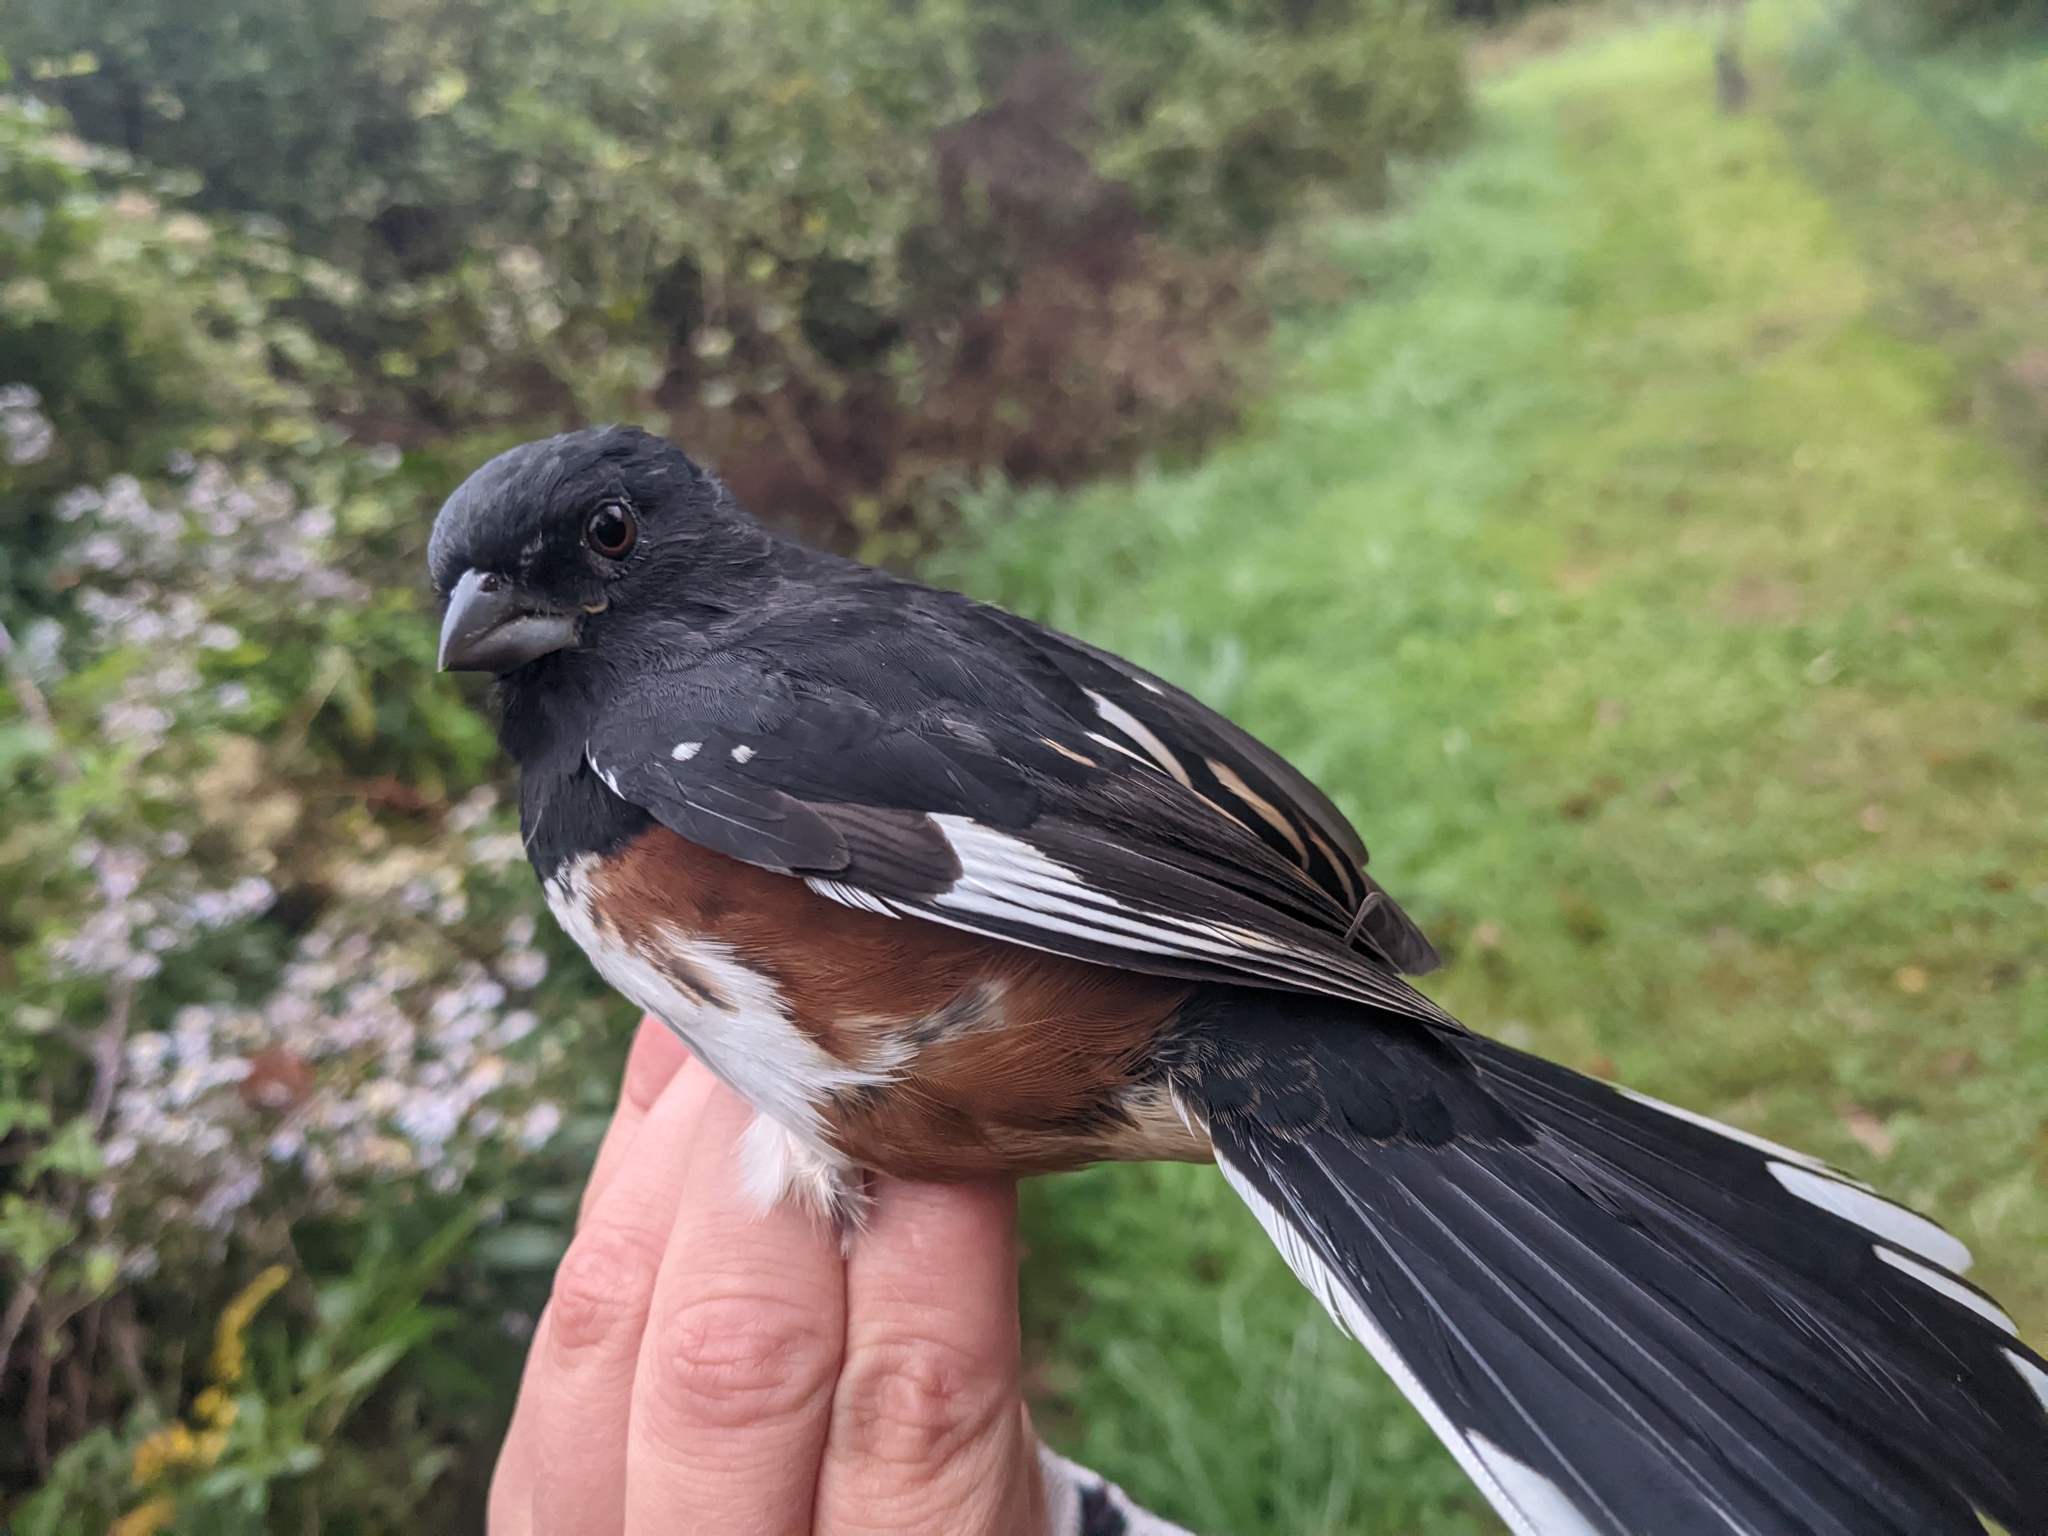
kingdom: Animalia
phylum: Chordata
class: Aves
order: Passeriformes
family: Passerellidae
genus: Pipilo
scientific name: Pipilo erythrophthalmus
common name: Eastern towhee
